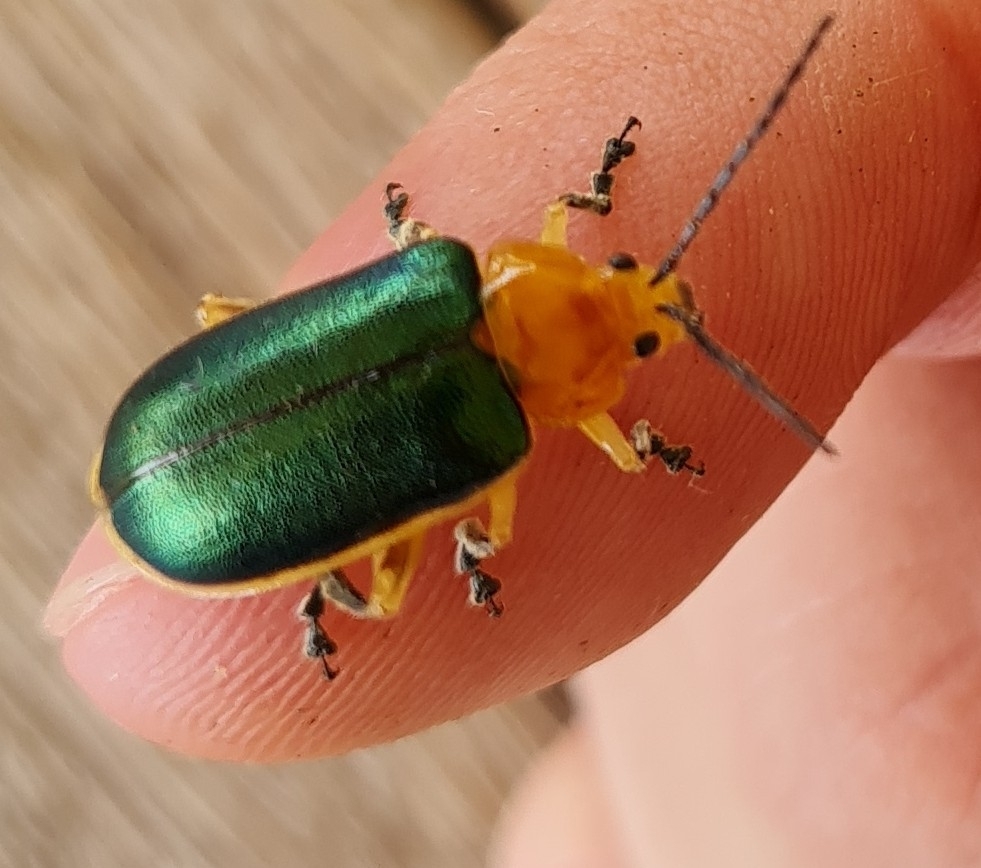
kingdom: Animalia
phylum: Arthropoda
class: Insecta
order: Coleoptera
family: Chrysomelidae
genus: Cacoscelis
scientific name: Cacoscelis marginata
